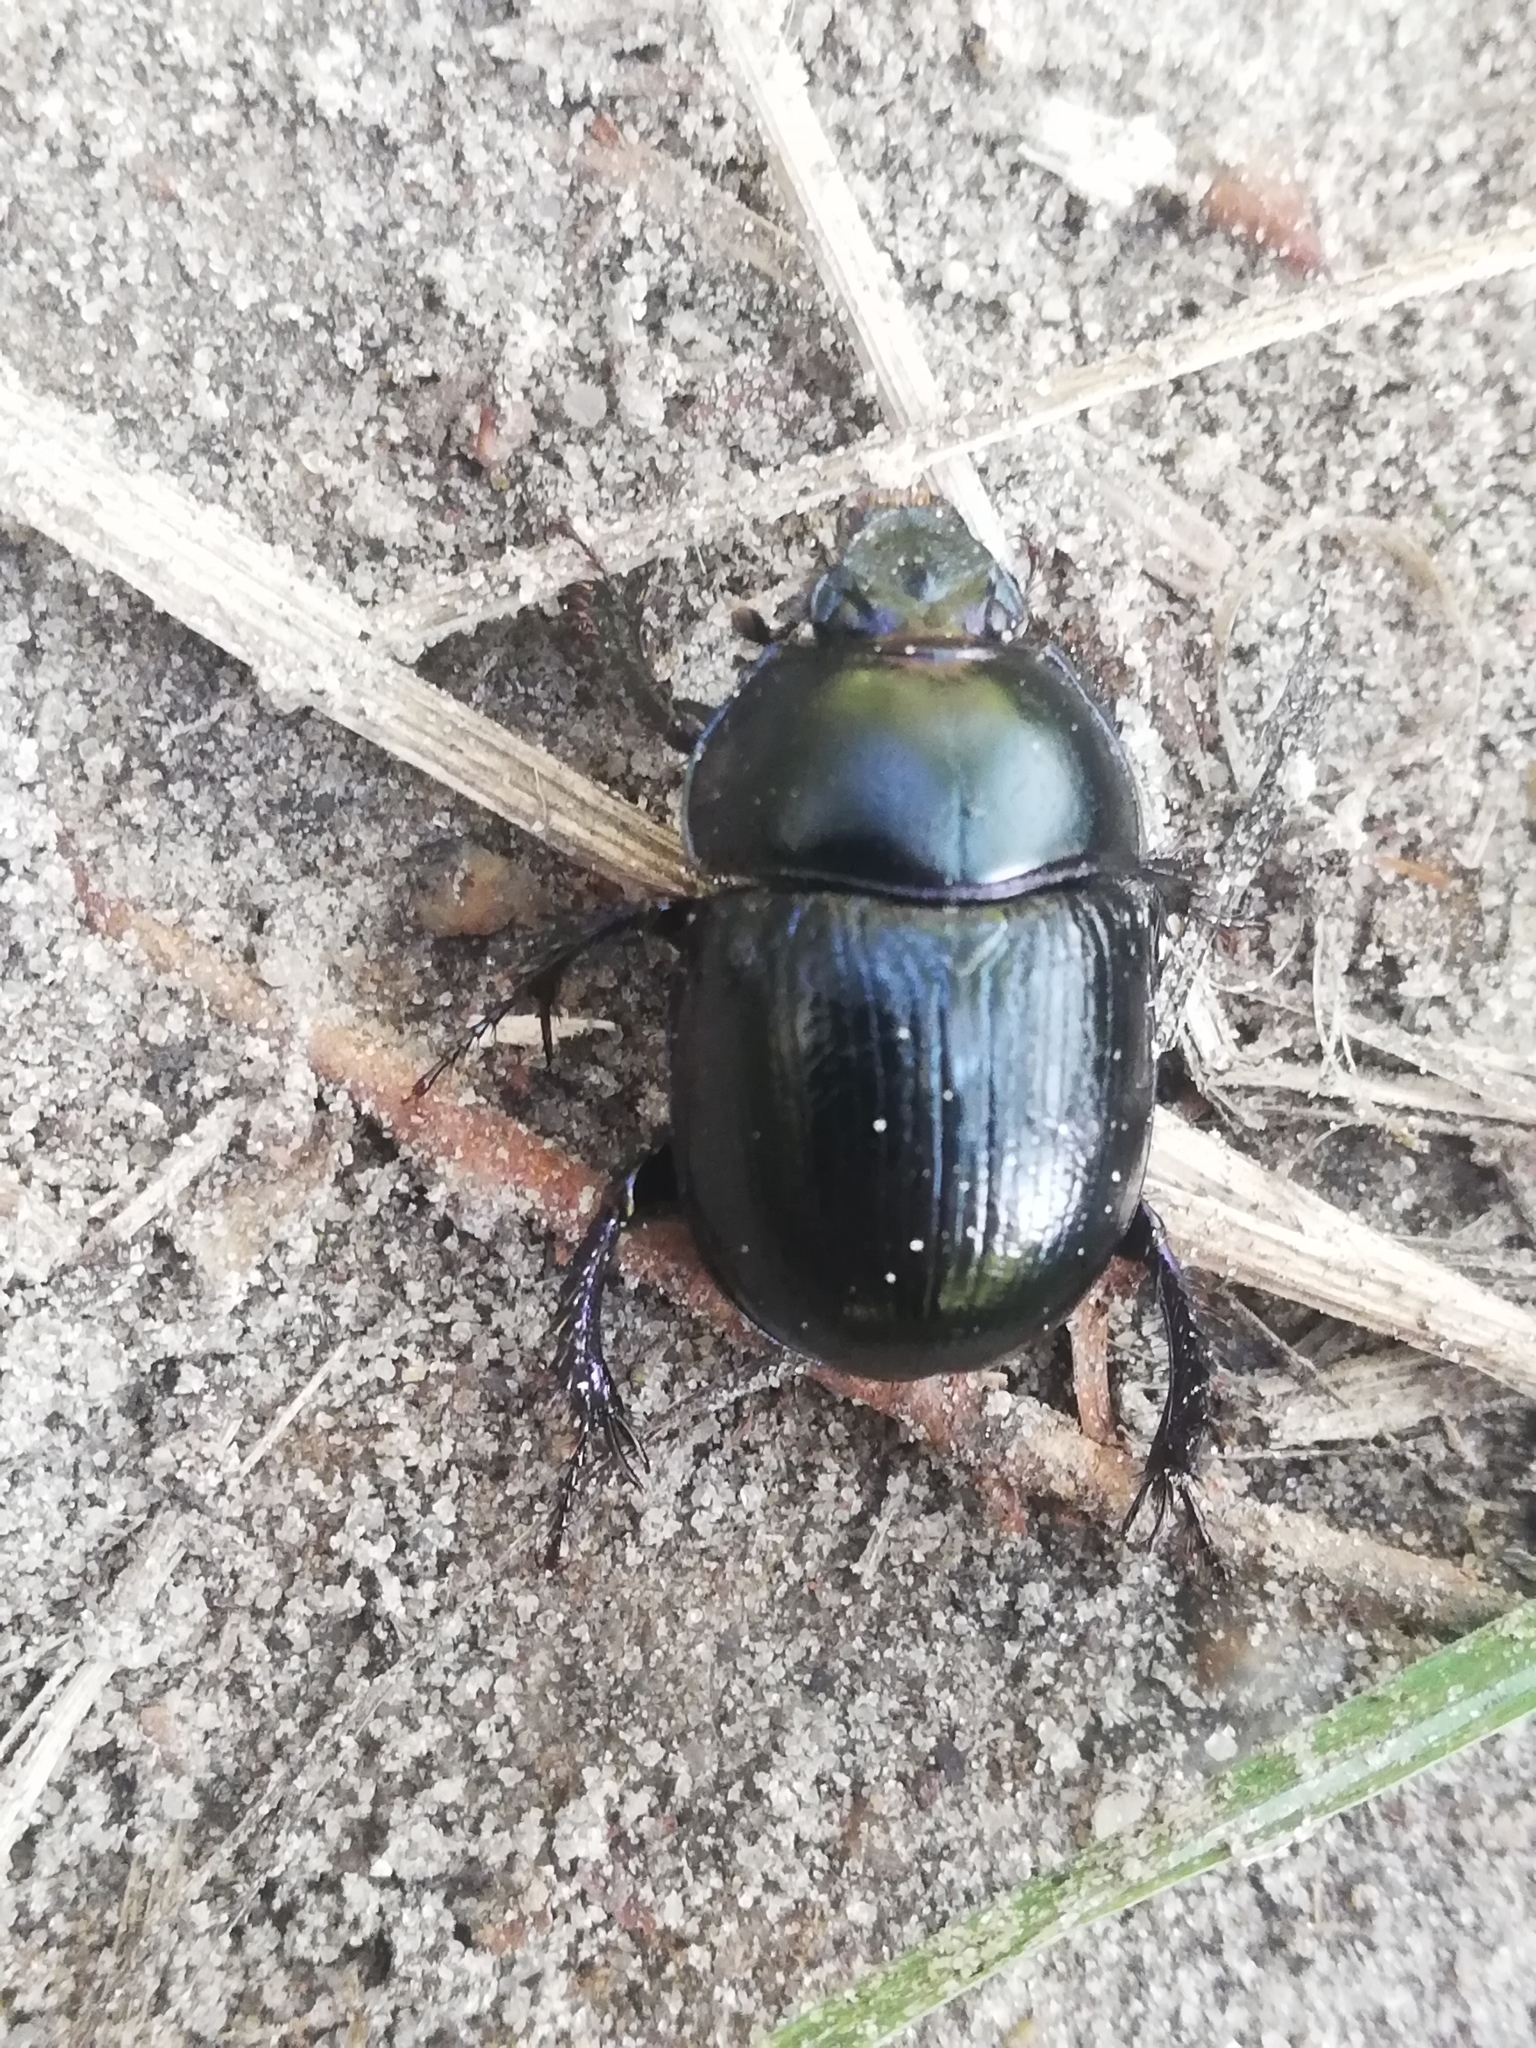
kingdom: Animalia
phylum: Arthropoda
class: Insecta
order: Coleoptera
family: Geotrupidae
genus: Anoplotrupes
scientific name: Anoplotrupes stercorosus
